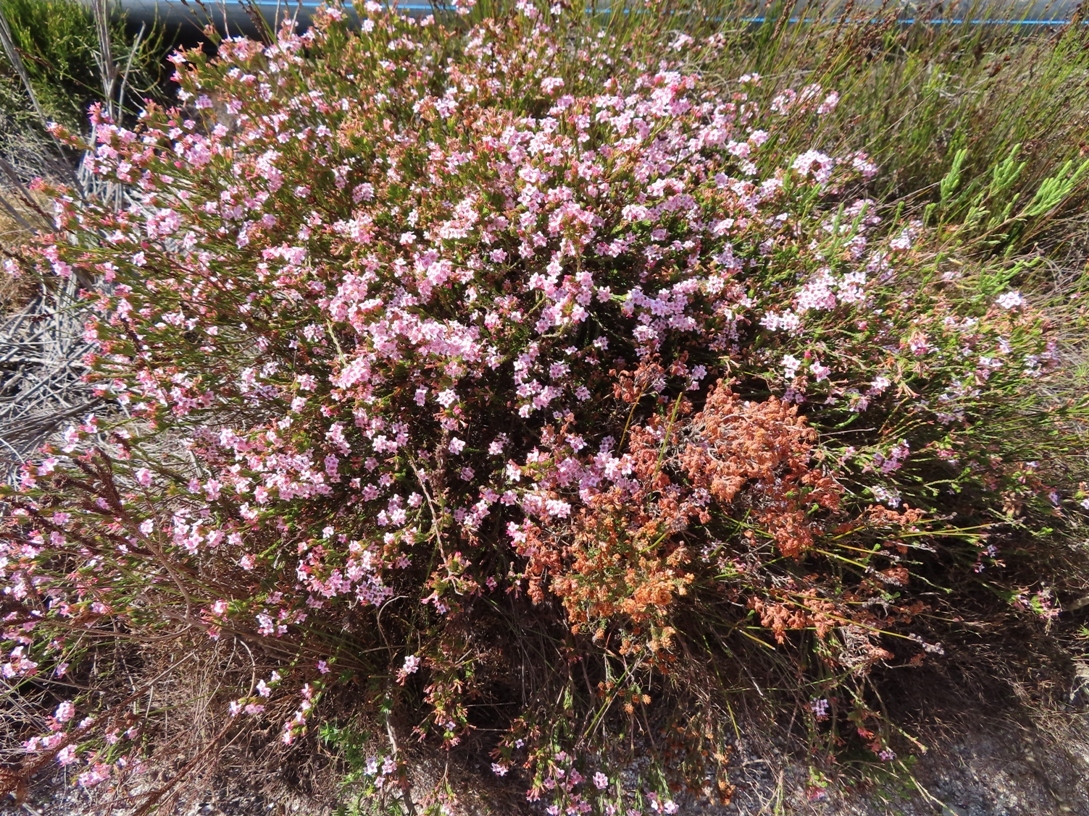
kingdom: Plantae
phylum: Tracheophyta
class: Magnoliopsida
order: Ericales
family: Ericaceae
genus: Erica
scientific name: Erica fastigiata
